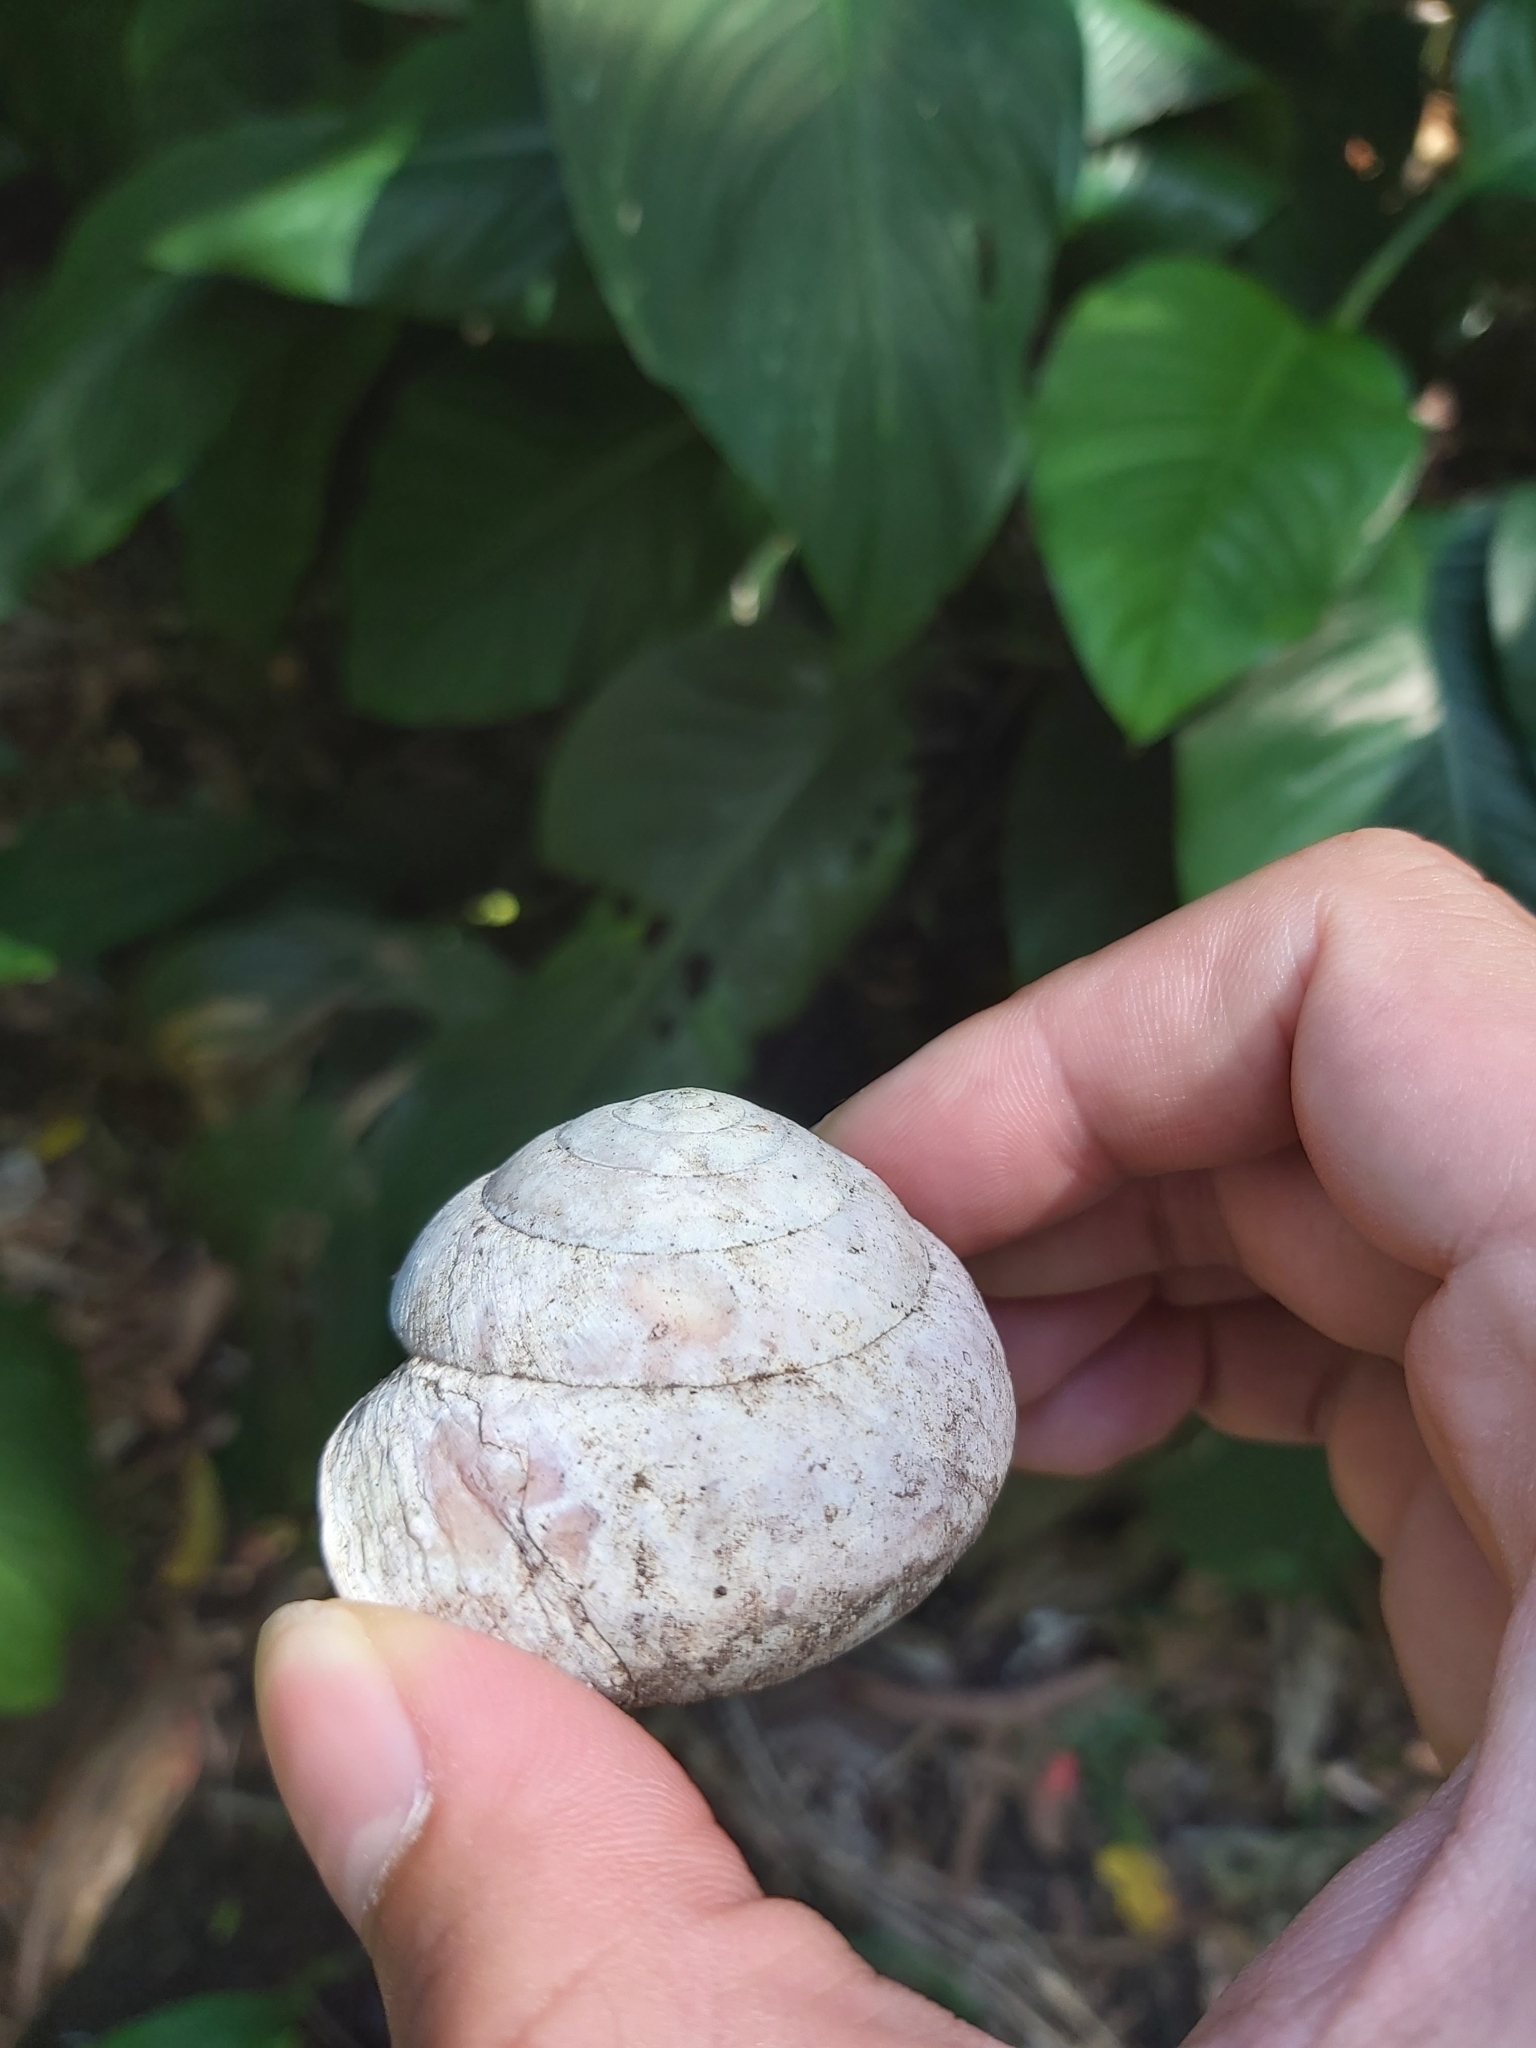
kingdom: Animalia
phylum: Mollusca
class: Gastropoda
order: Stylommatophora
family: Camaenidae
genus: Hadra
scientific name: Hadra webbi
